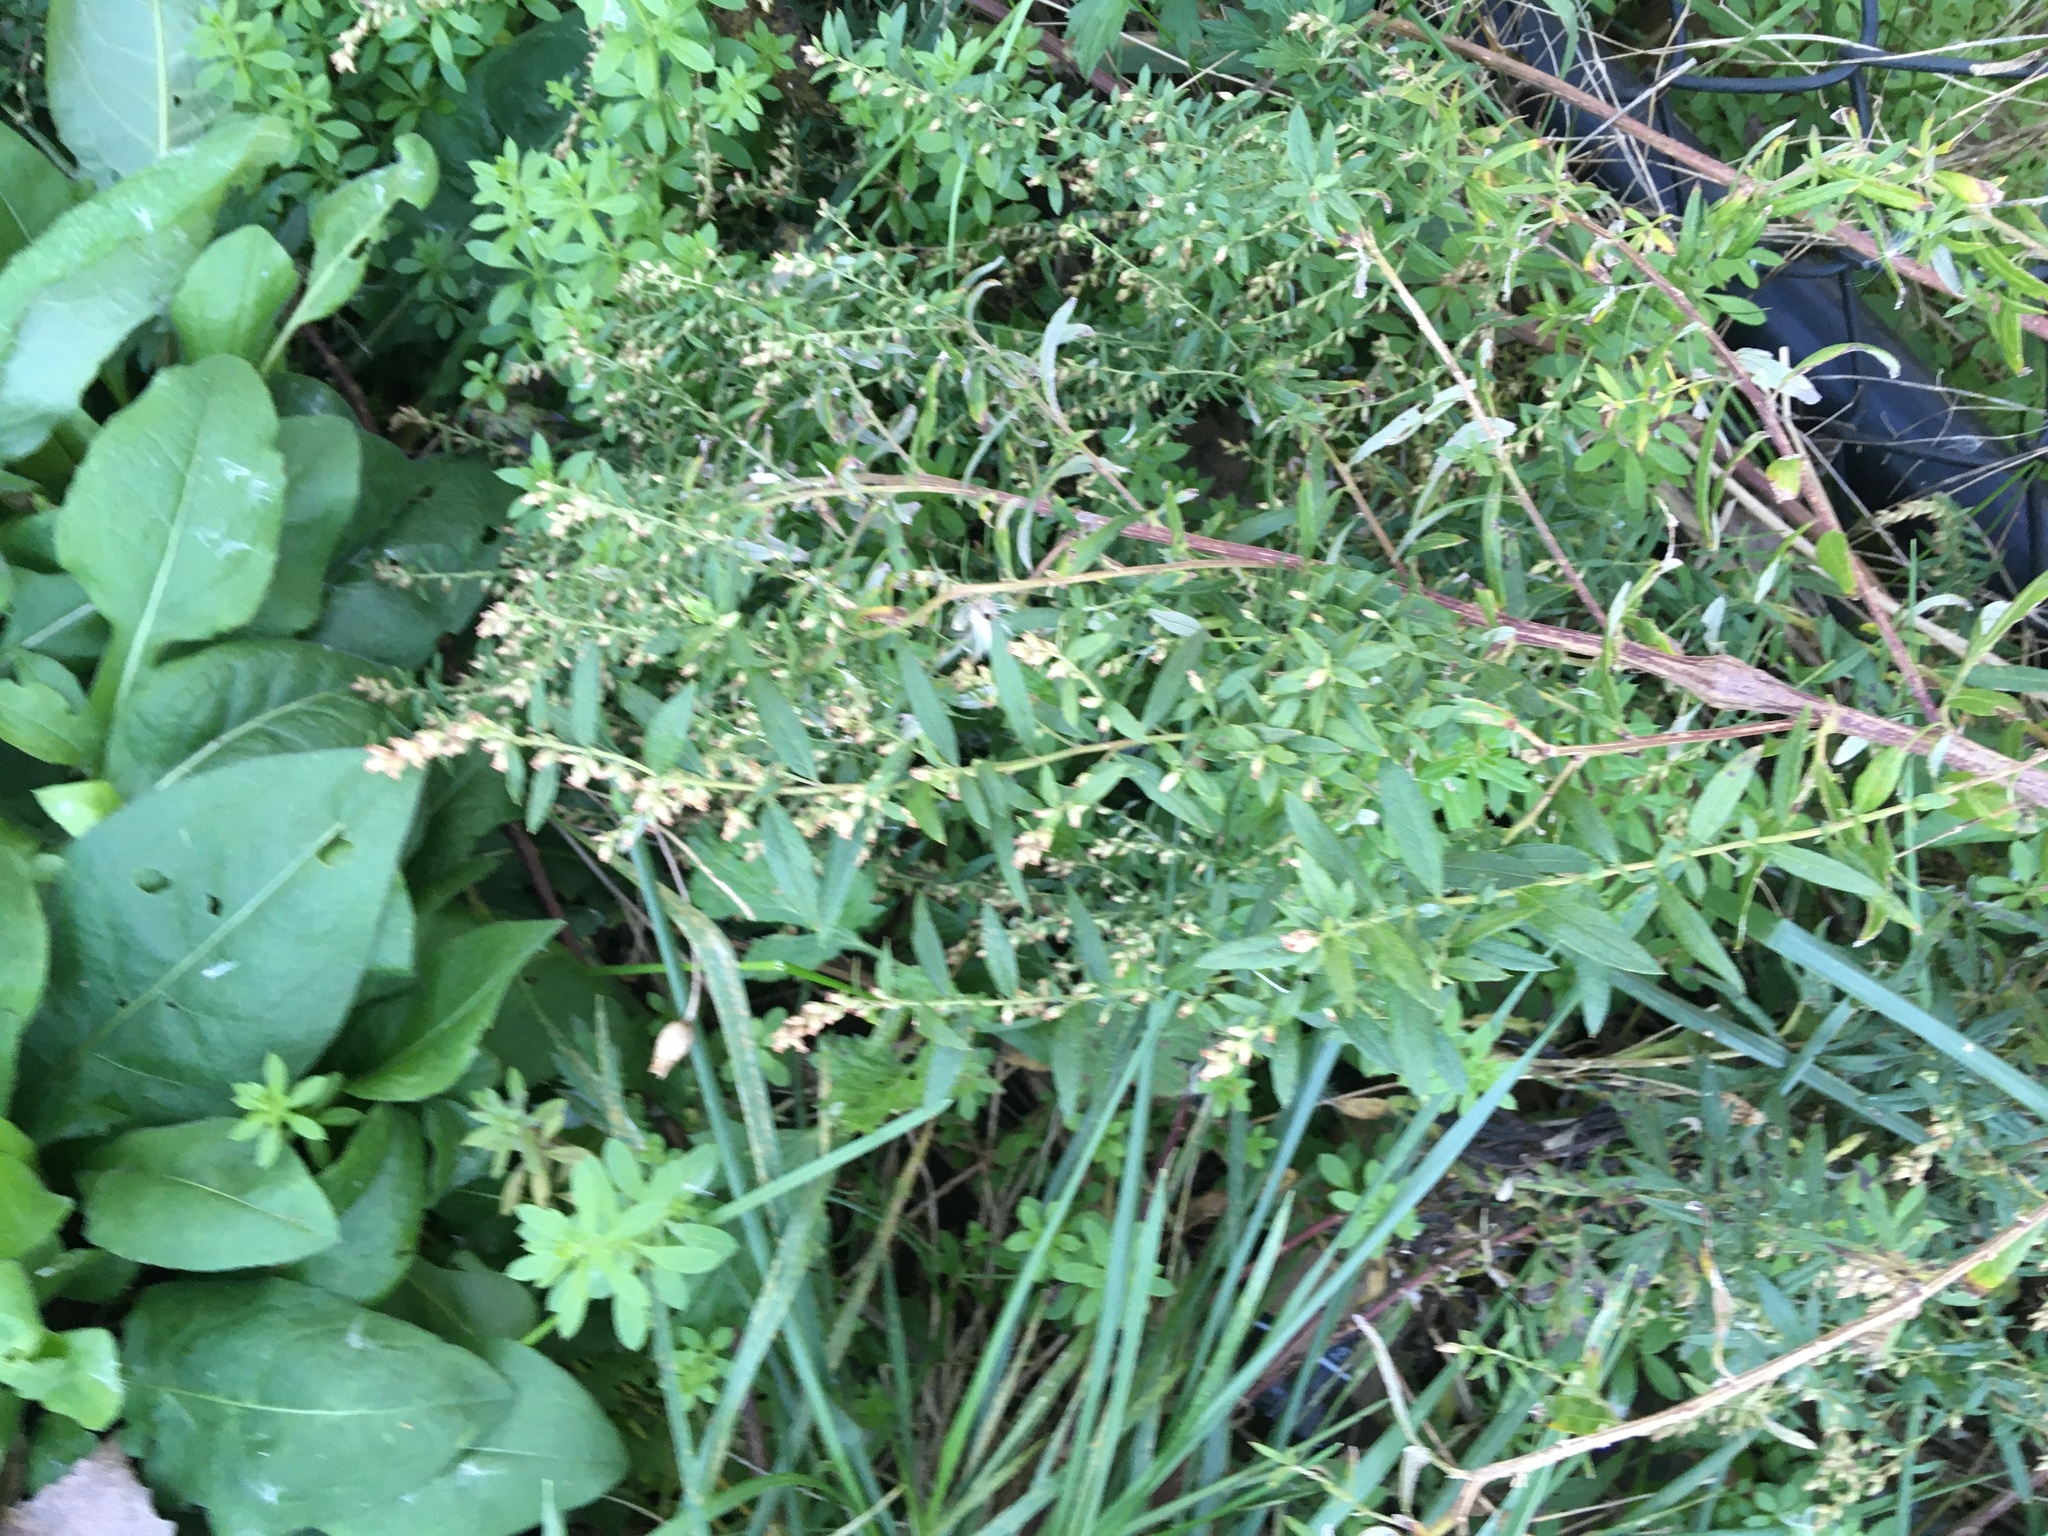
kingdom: Plantae
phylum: Tracheophyta
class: Magnoliopsida
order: Asterales
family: Asteraceae
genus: Artemisia
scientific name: Artemisia vulgaris
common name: Mugwort
